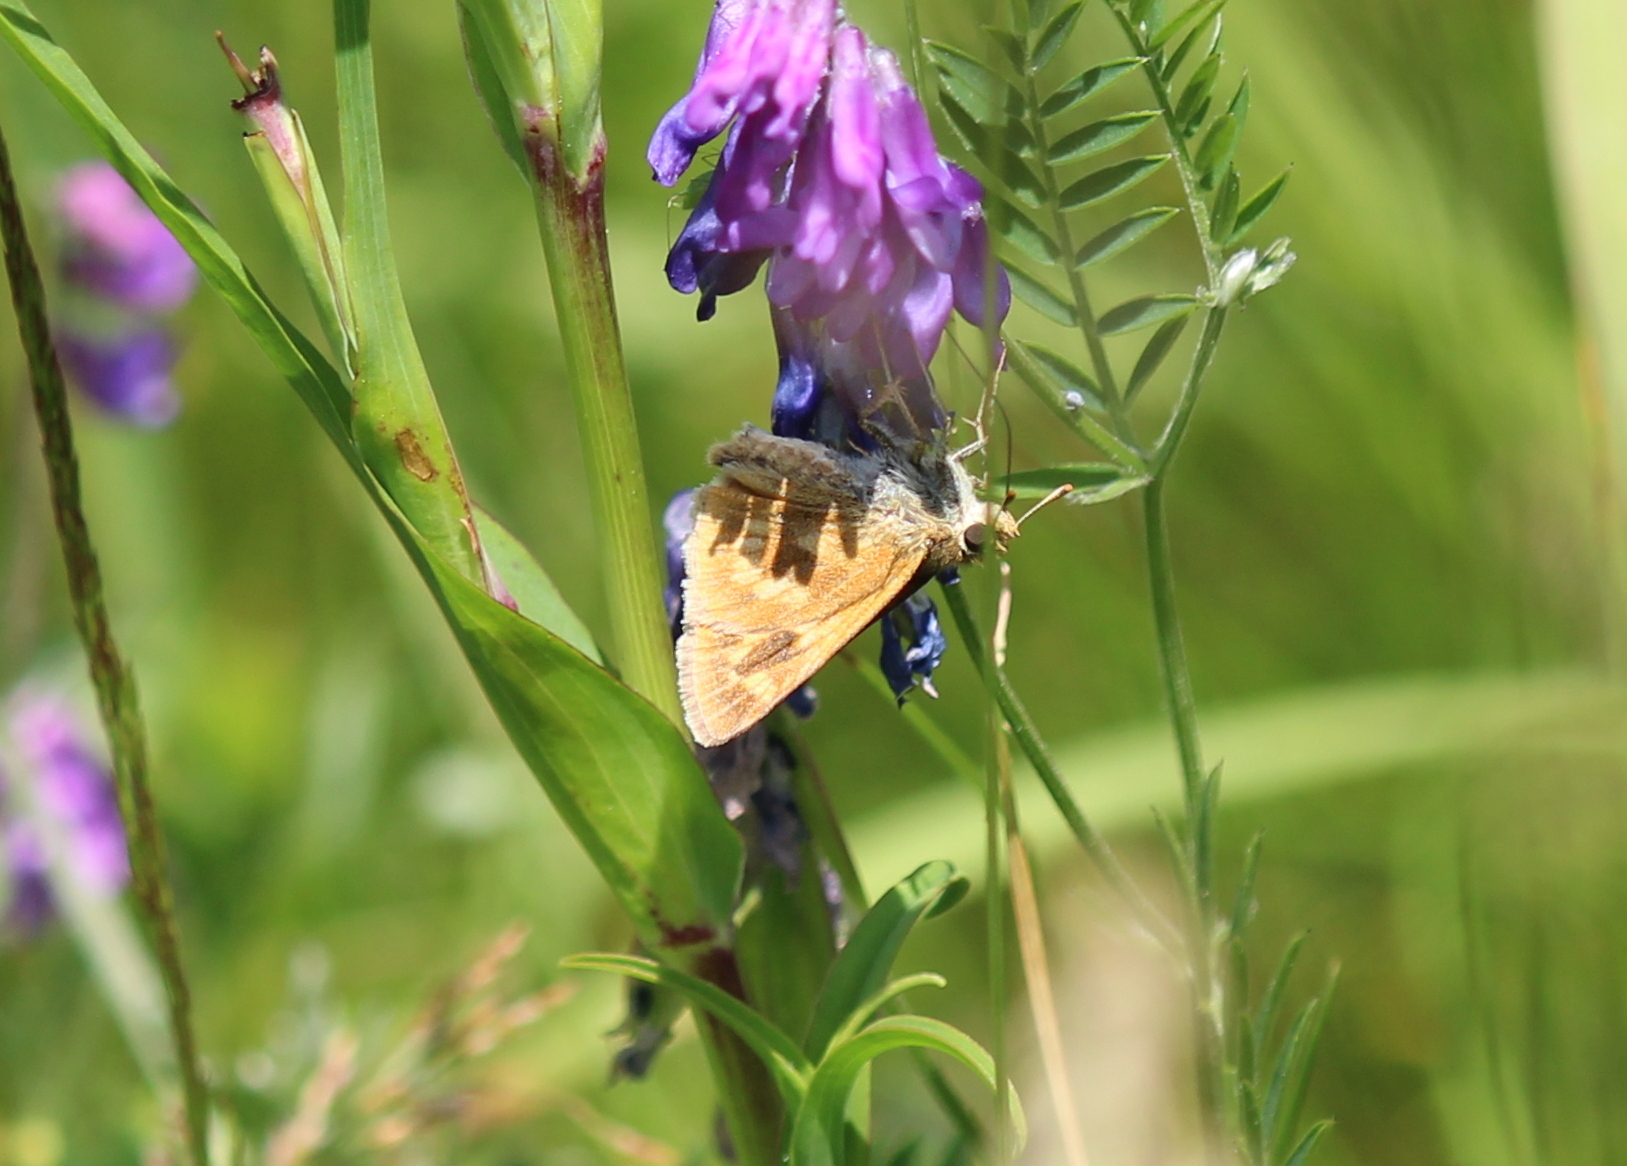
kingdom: Animalia
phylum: Arthropoda
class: Insecta
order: Lepidoptera
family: Hesperiidae
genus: Polites
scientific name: Polites mystic
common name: Long dash
